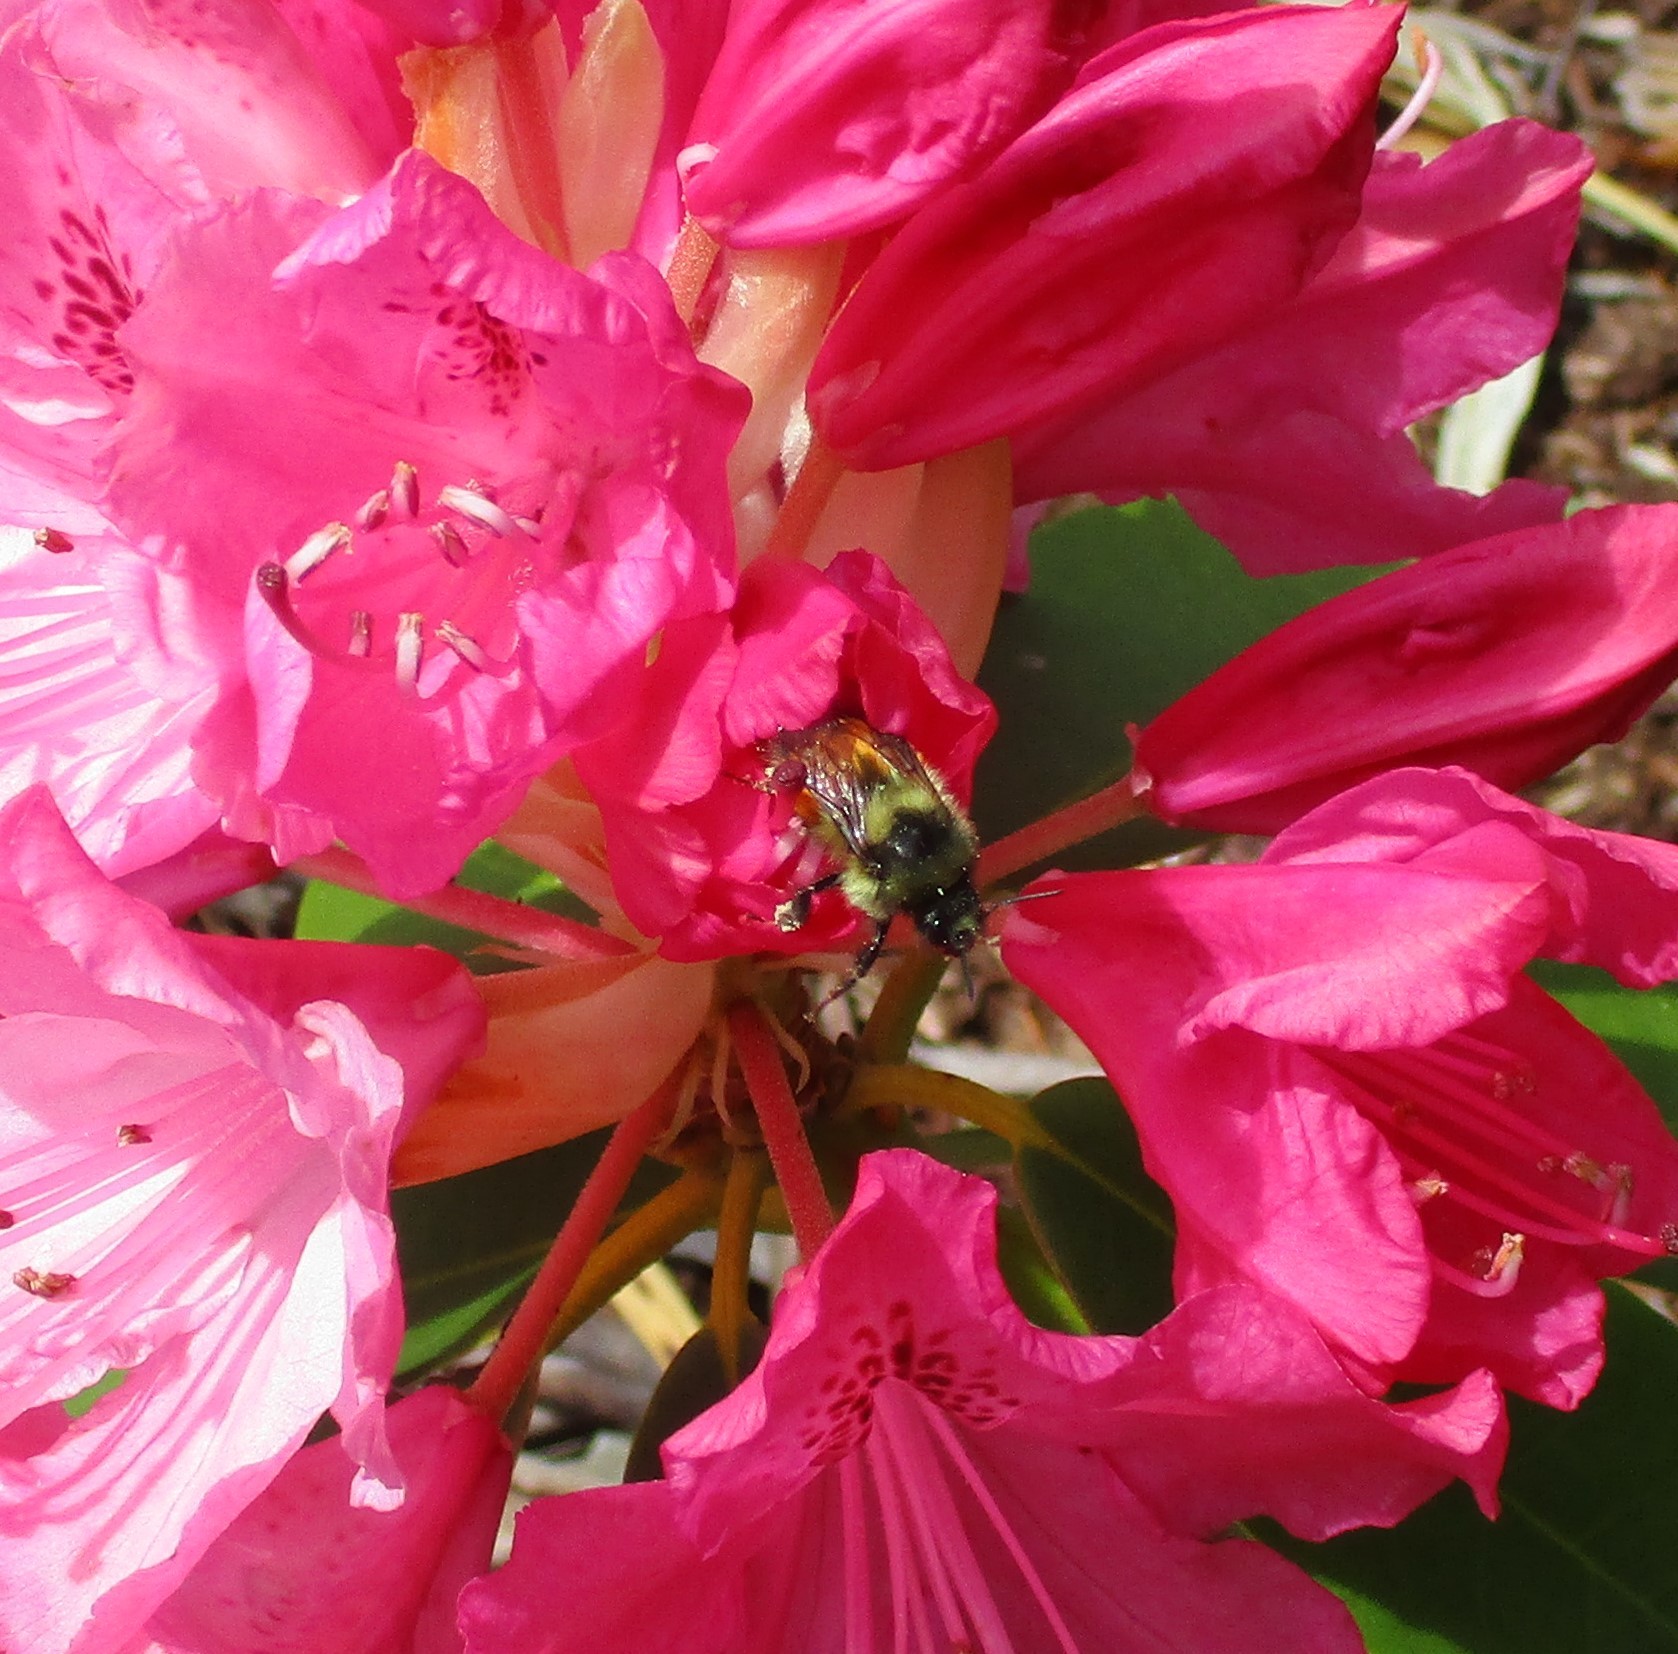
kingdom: Animalia
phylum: Arthropoda
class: Insecta
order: Hymenoptera
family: Apidae
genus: Bombus
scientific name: Bombus melanopygus
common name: Black tail bumble bee
